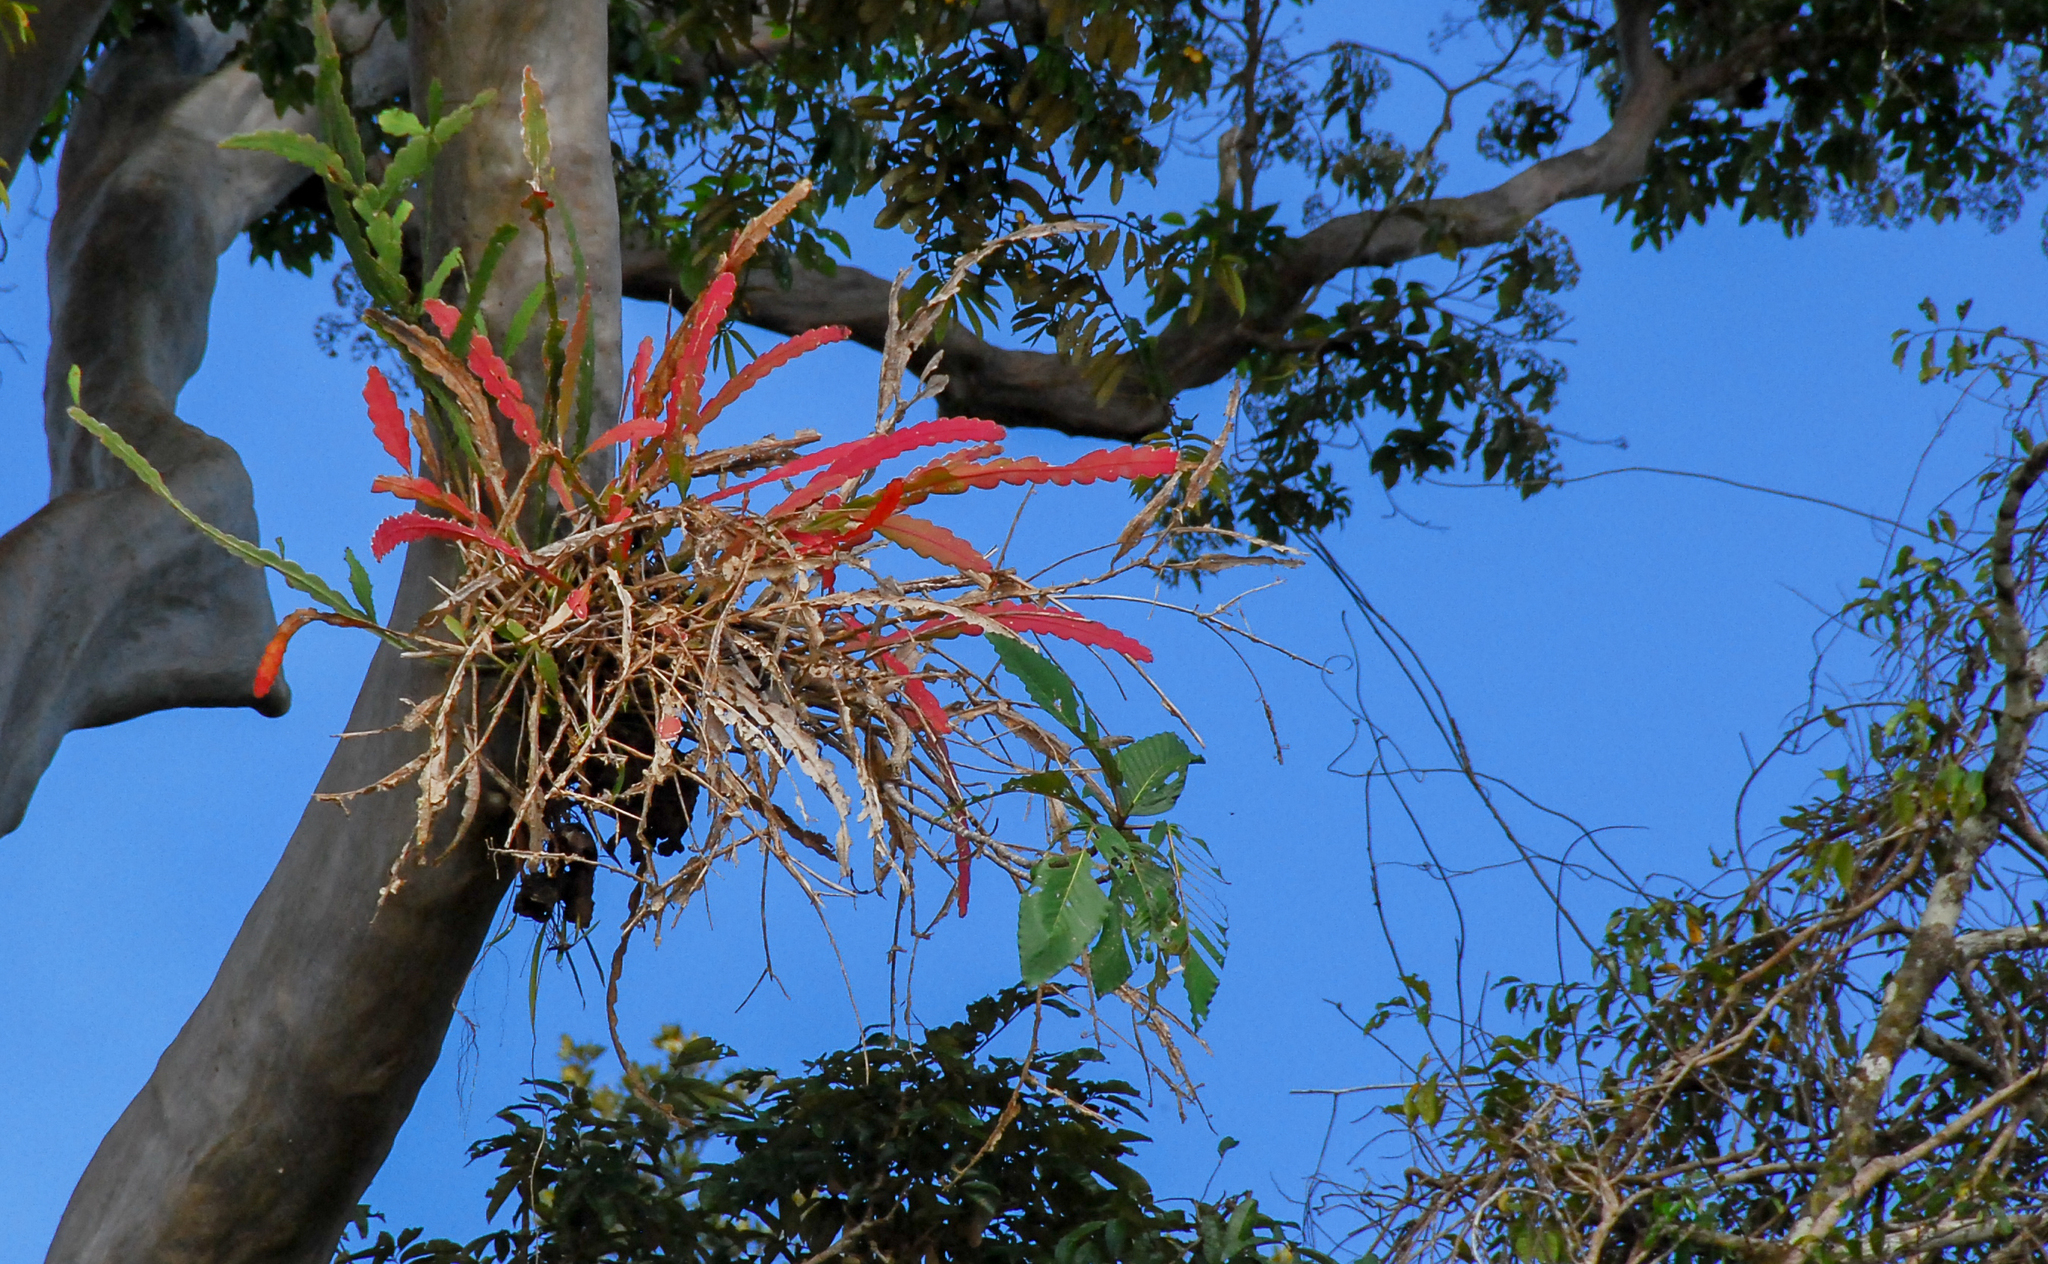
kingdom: Plantae
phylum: Tracheophyta
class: Magnoliopsida
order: Caryophyllales
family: Cactaceae
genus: Epiphyllum
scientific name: Epiphyllum phyllanthus
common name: Climbing cactus
